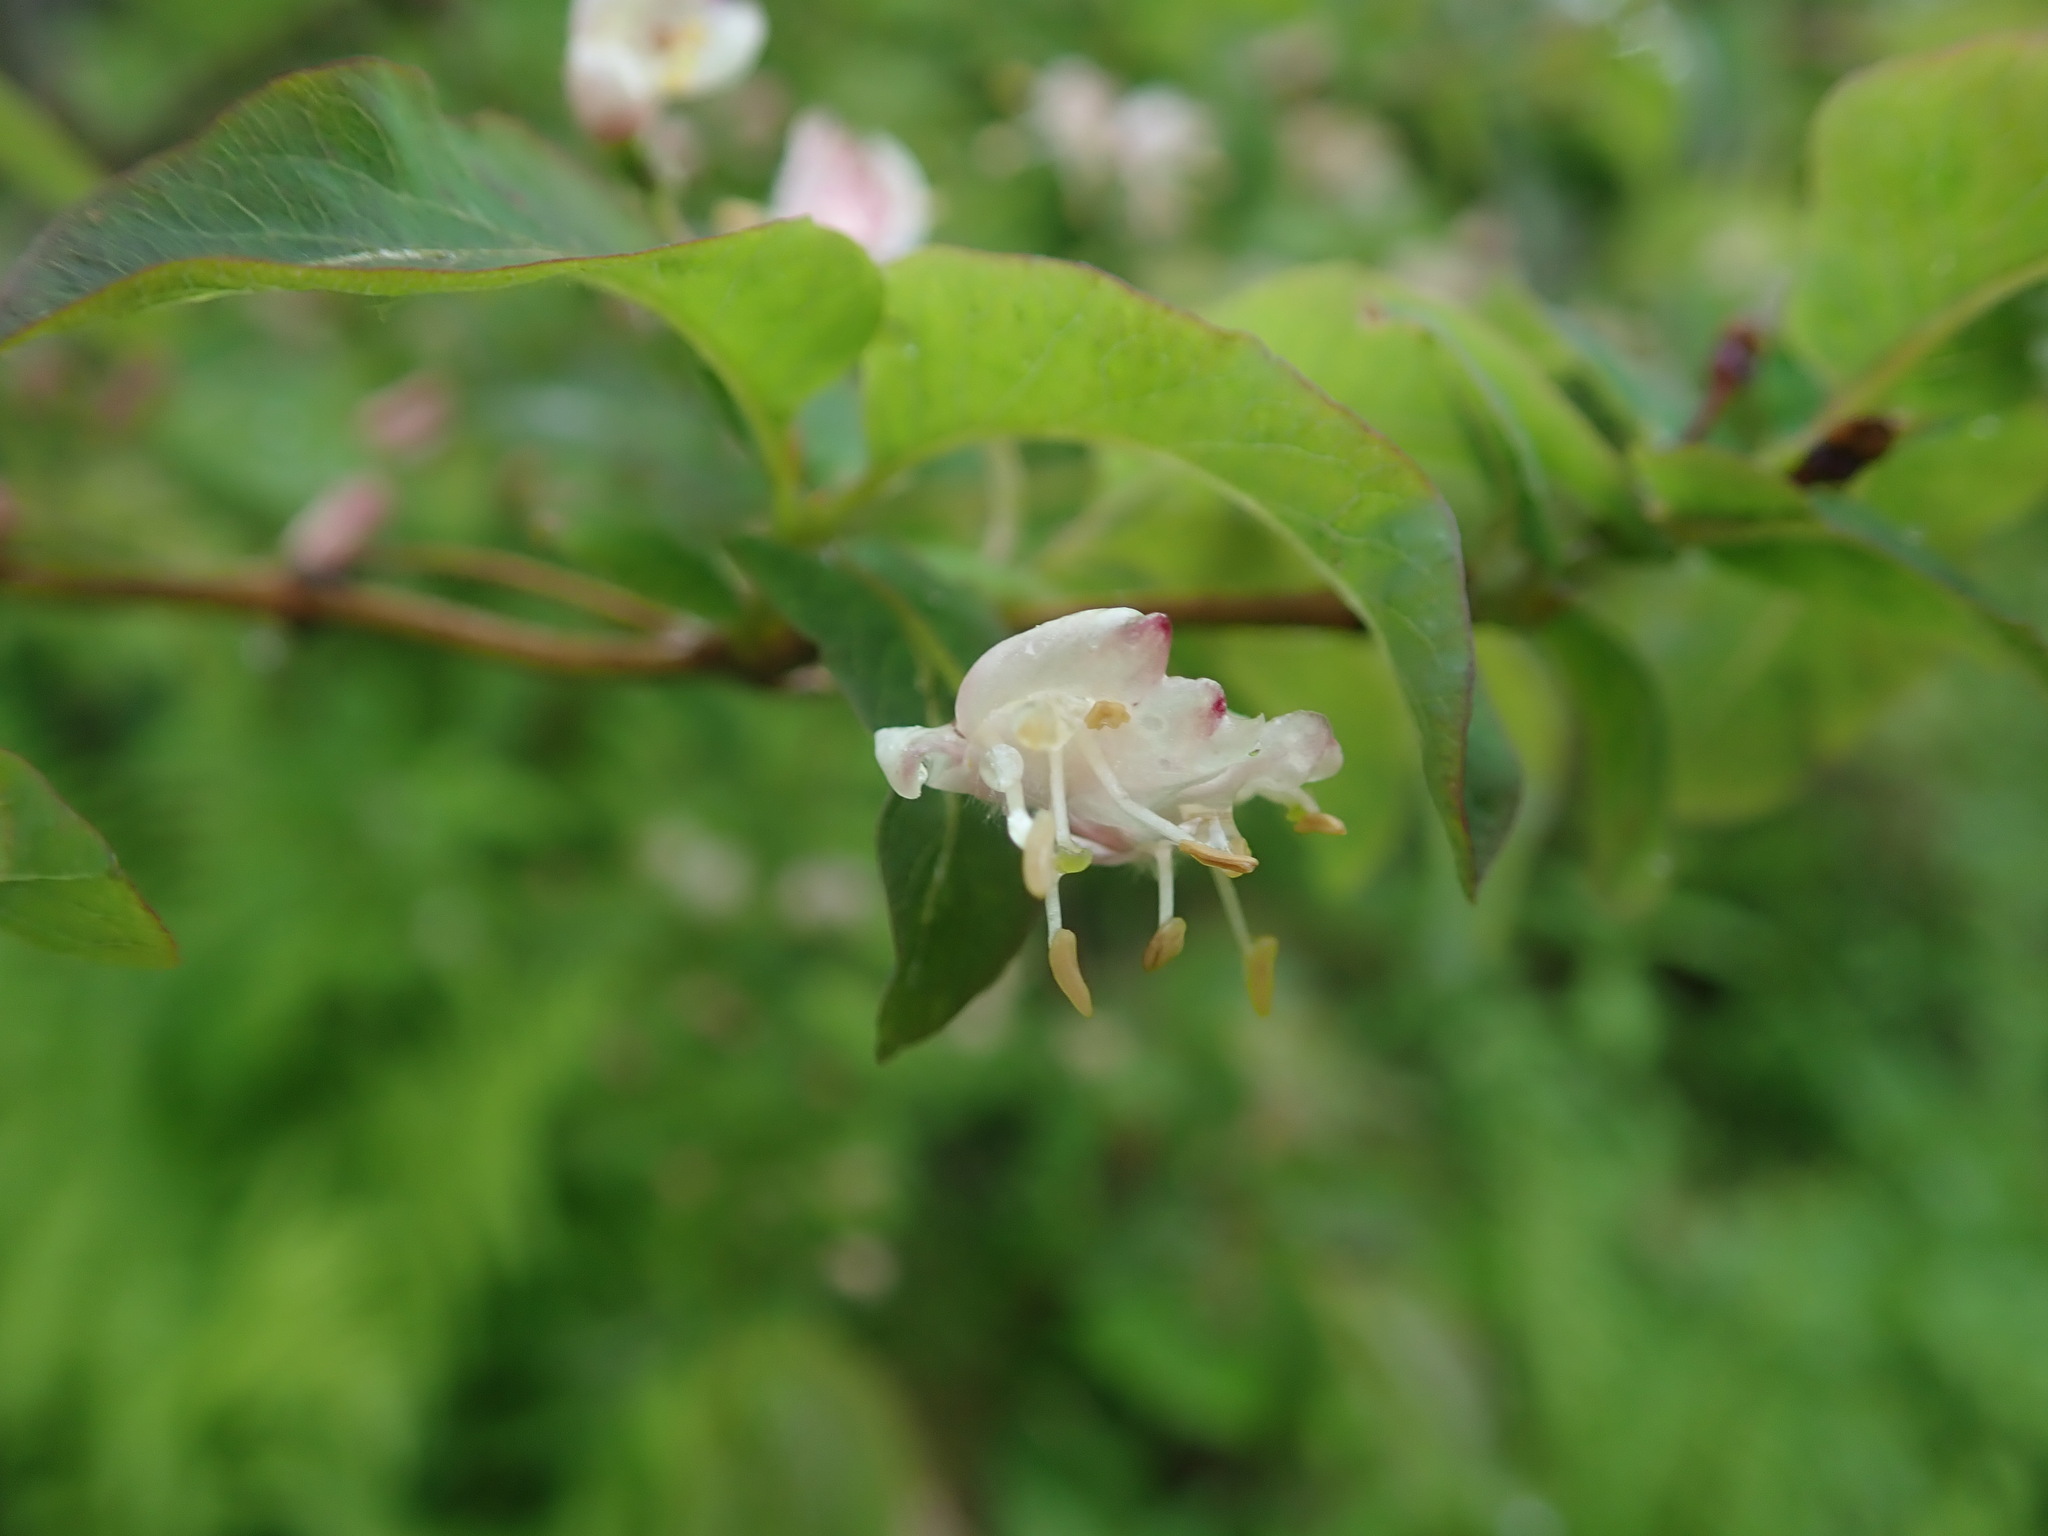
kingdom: Plantae
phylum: Tracheophyta
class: Magnoliopsida
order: Dipsacales
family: Caprifoliaceae
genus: Lonicera
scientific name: Lonicera nigra
